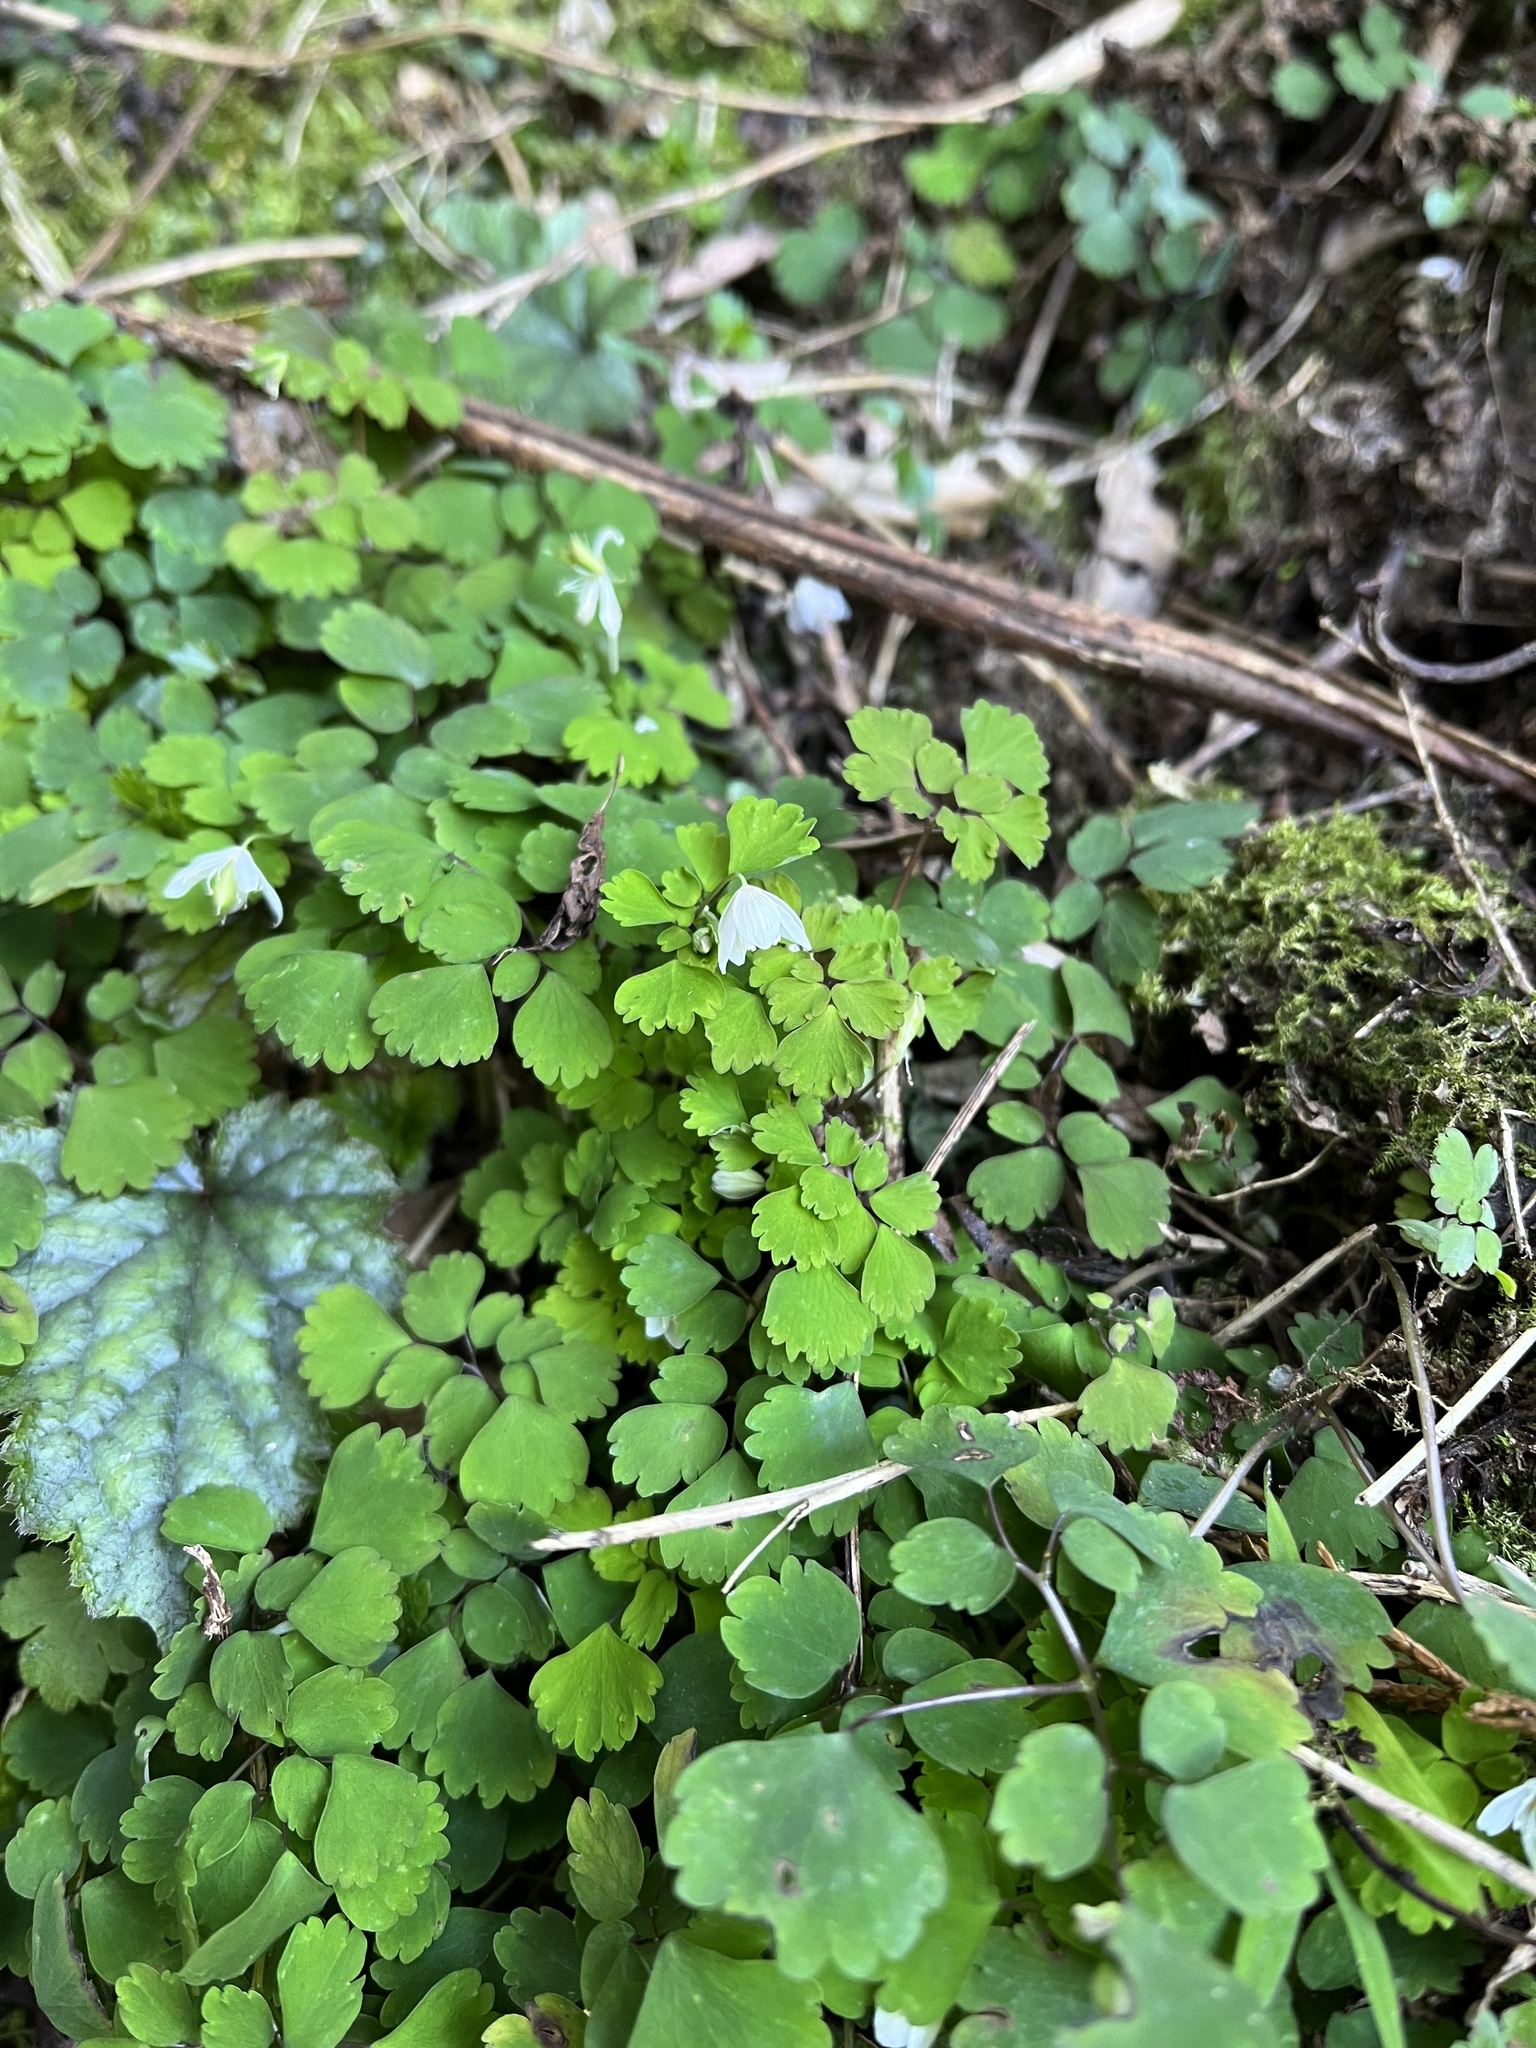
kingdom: Plantae
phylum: Tracheophyta
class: Magnoliopsida
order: Ranunculales
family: Ranunculaceae
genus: Dichocarpum
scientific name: Dichocarpum adiantifolium
